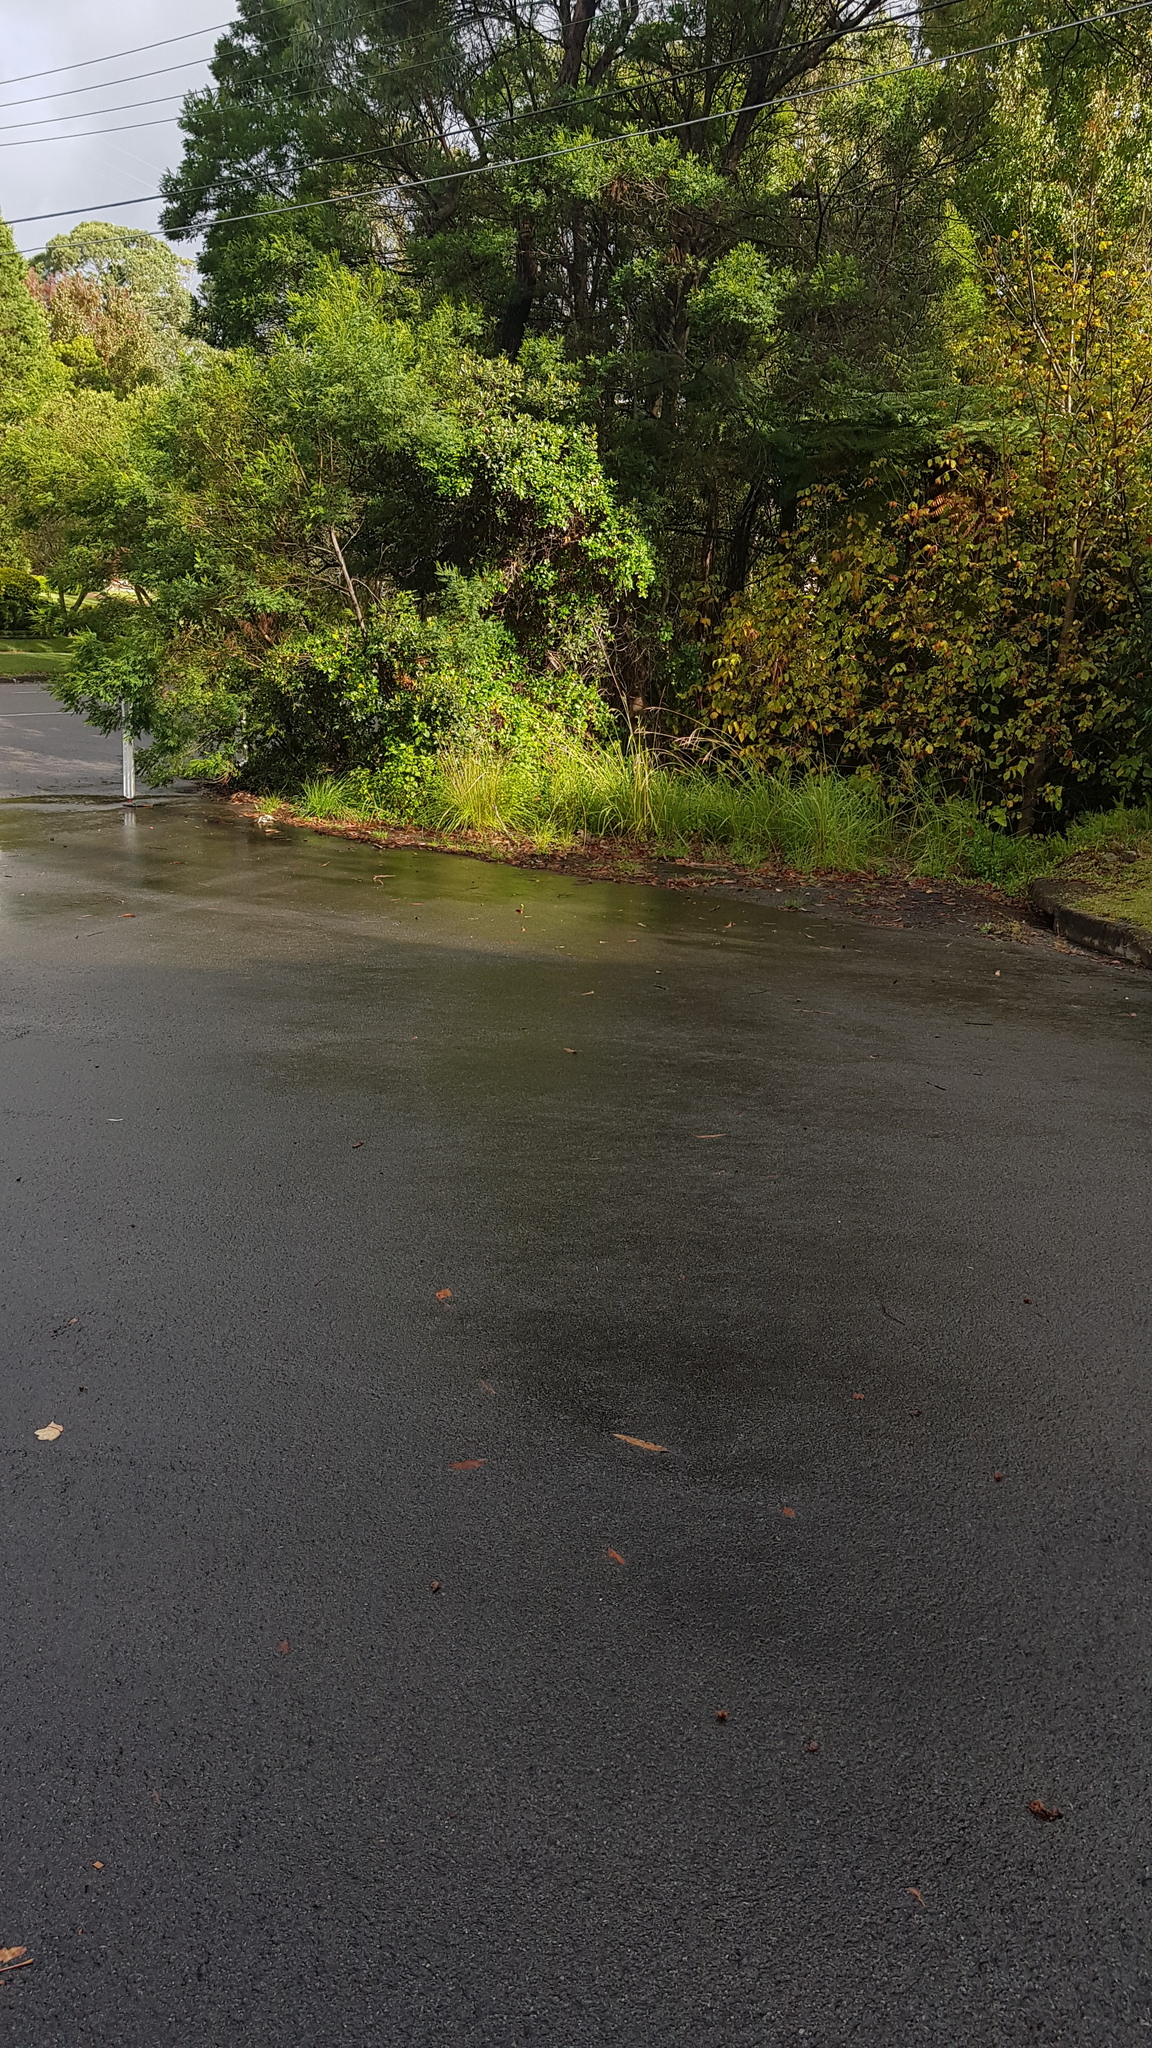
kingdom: Animalia
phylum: Chordata
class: Aves
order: Gruiformes
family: Rallidae
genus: Gallirallus
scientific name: Gallirallus philippensis
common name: Buff-banded rail
